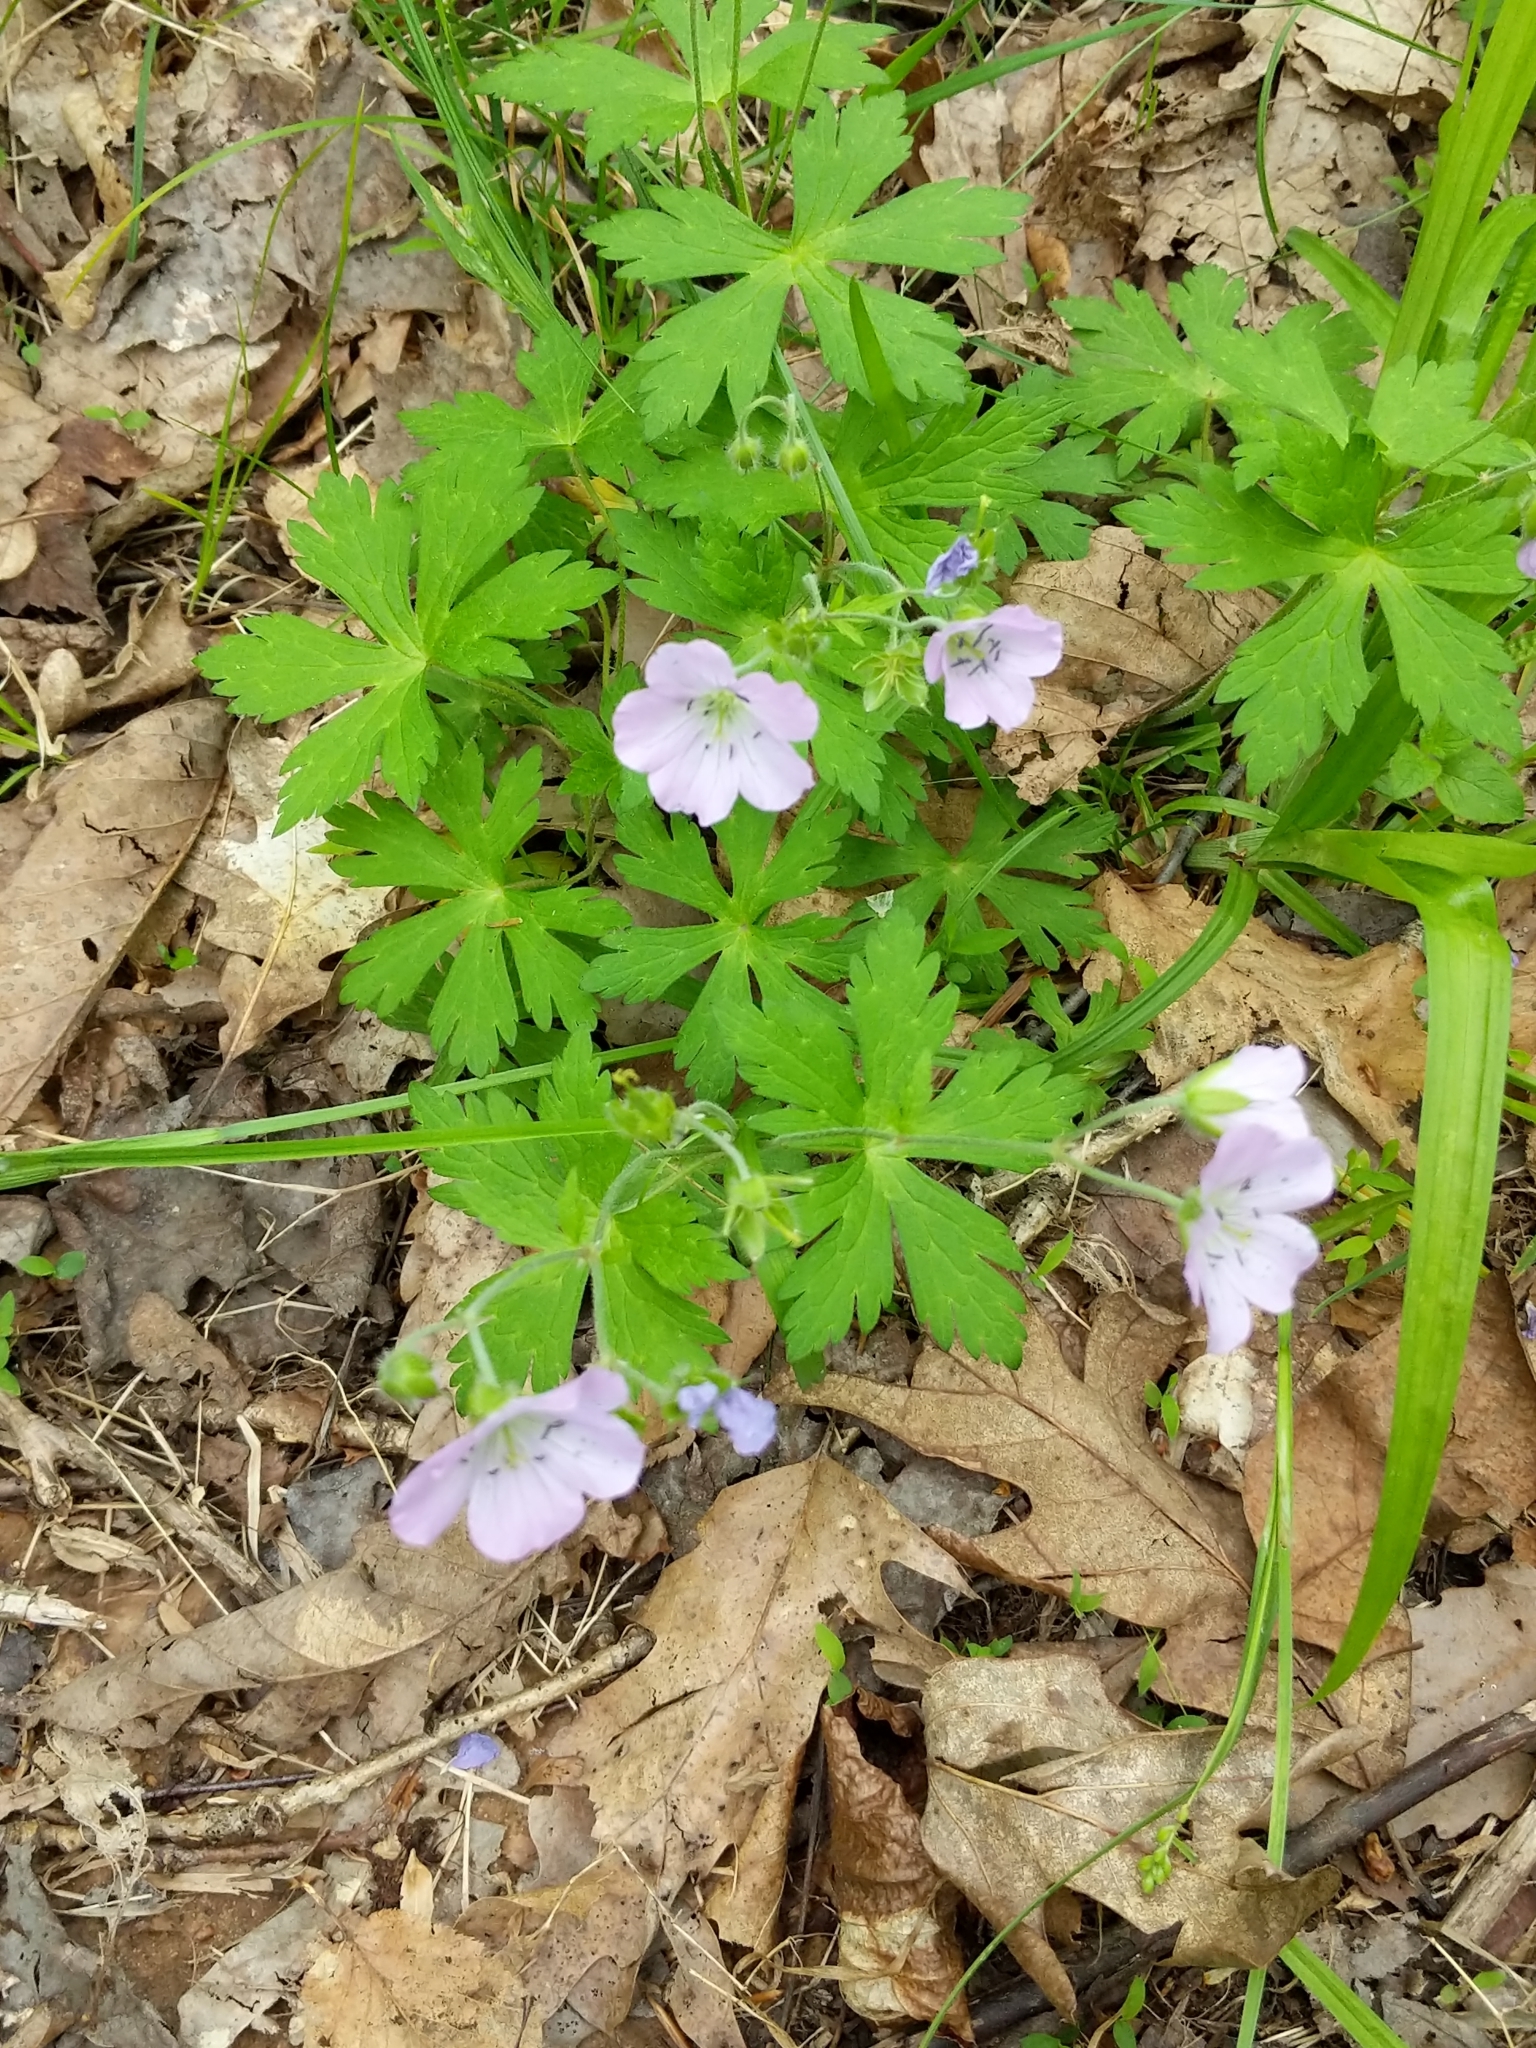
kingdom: Plantae
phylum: Tracheophyta
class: Magnoliopsida
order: Geraniales
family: Geraniaceae
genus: Geranium
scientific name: Geranium maculatum
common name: Spotted geranium
